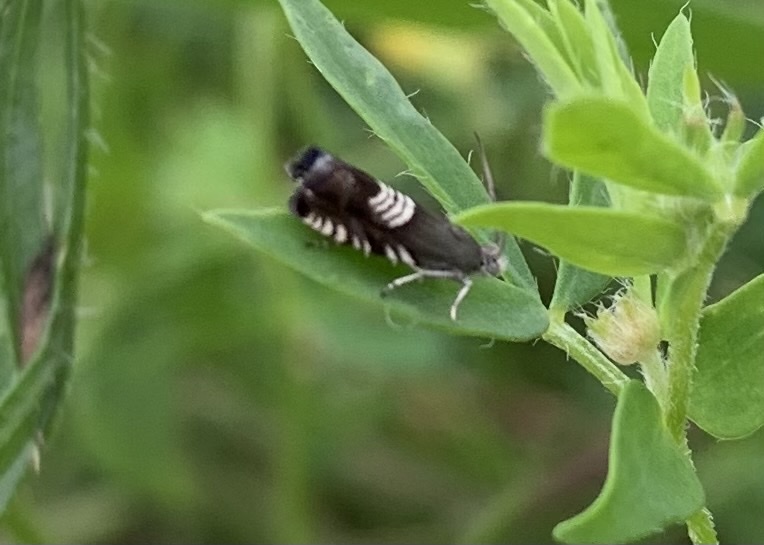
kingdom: Animalia
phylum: Arthropoda
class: Insecta
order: Lepidoptera
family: Tortricidae
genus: Grapholita
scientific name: Grapholita compositella
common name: Triple-stripe piercer
